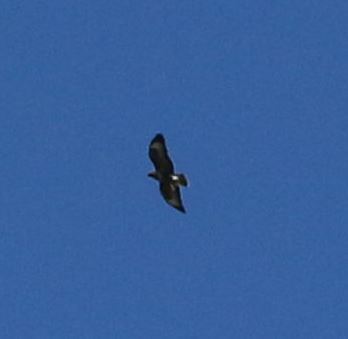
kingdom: Animalia
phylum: Chordata
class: Aves
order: Accipitriformes
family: Accipitridae
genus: Buteo
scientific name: Buteo buteo
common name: Common buzzard
